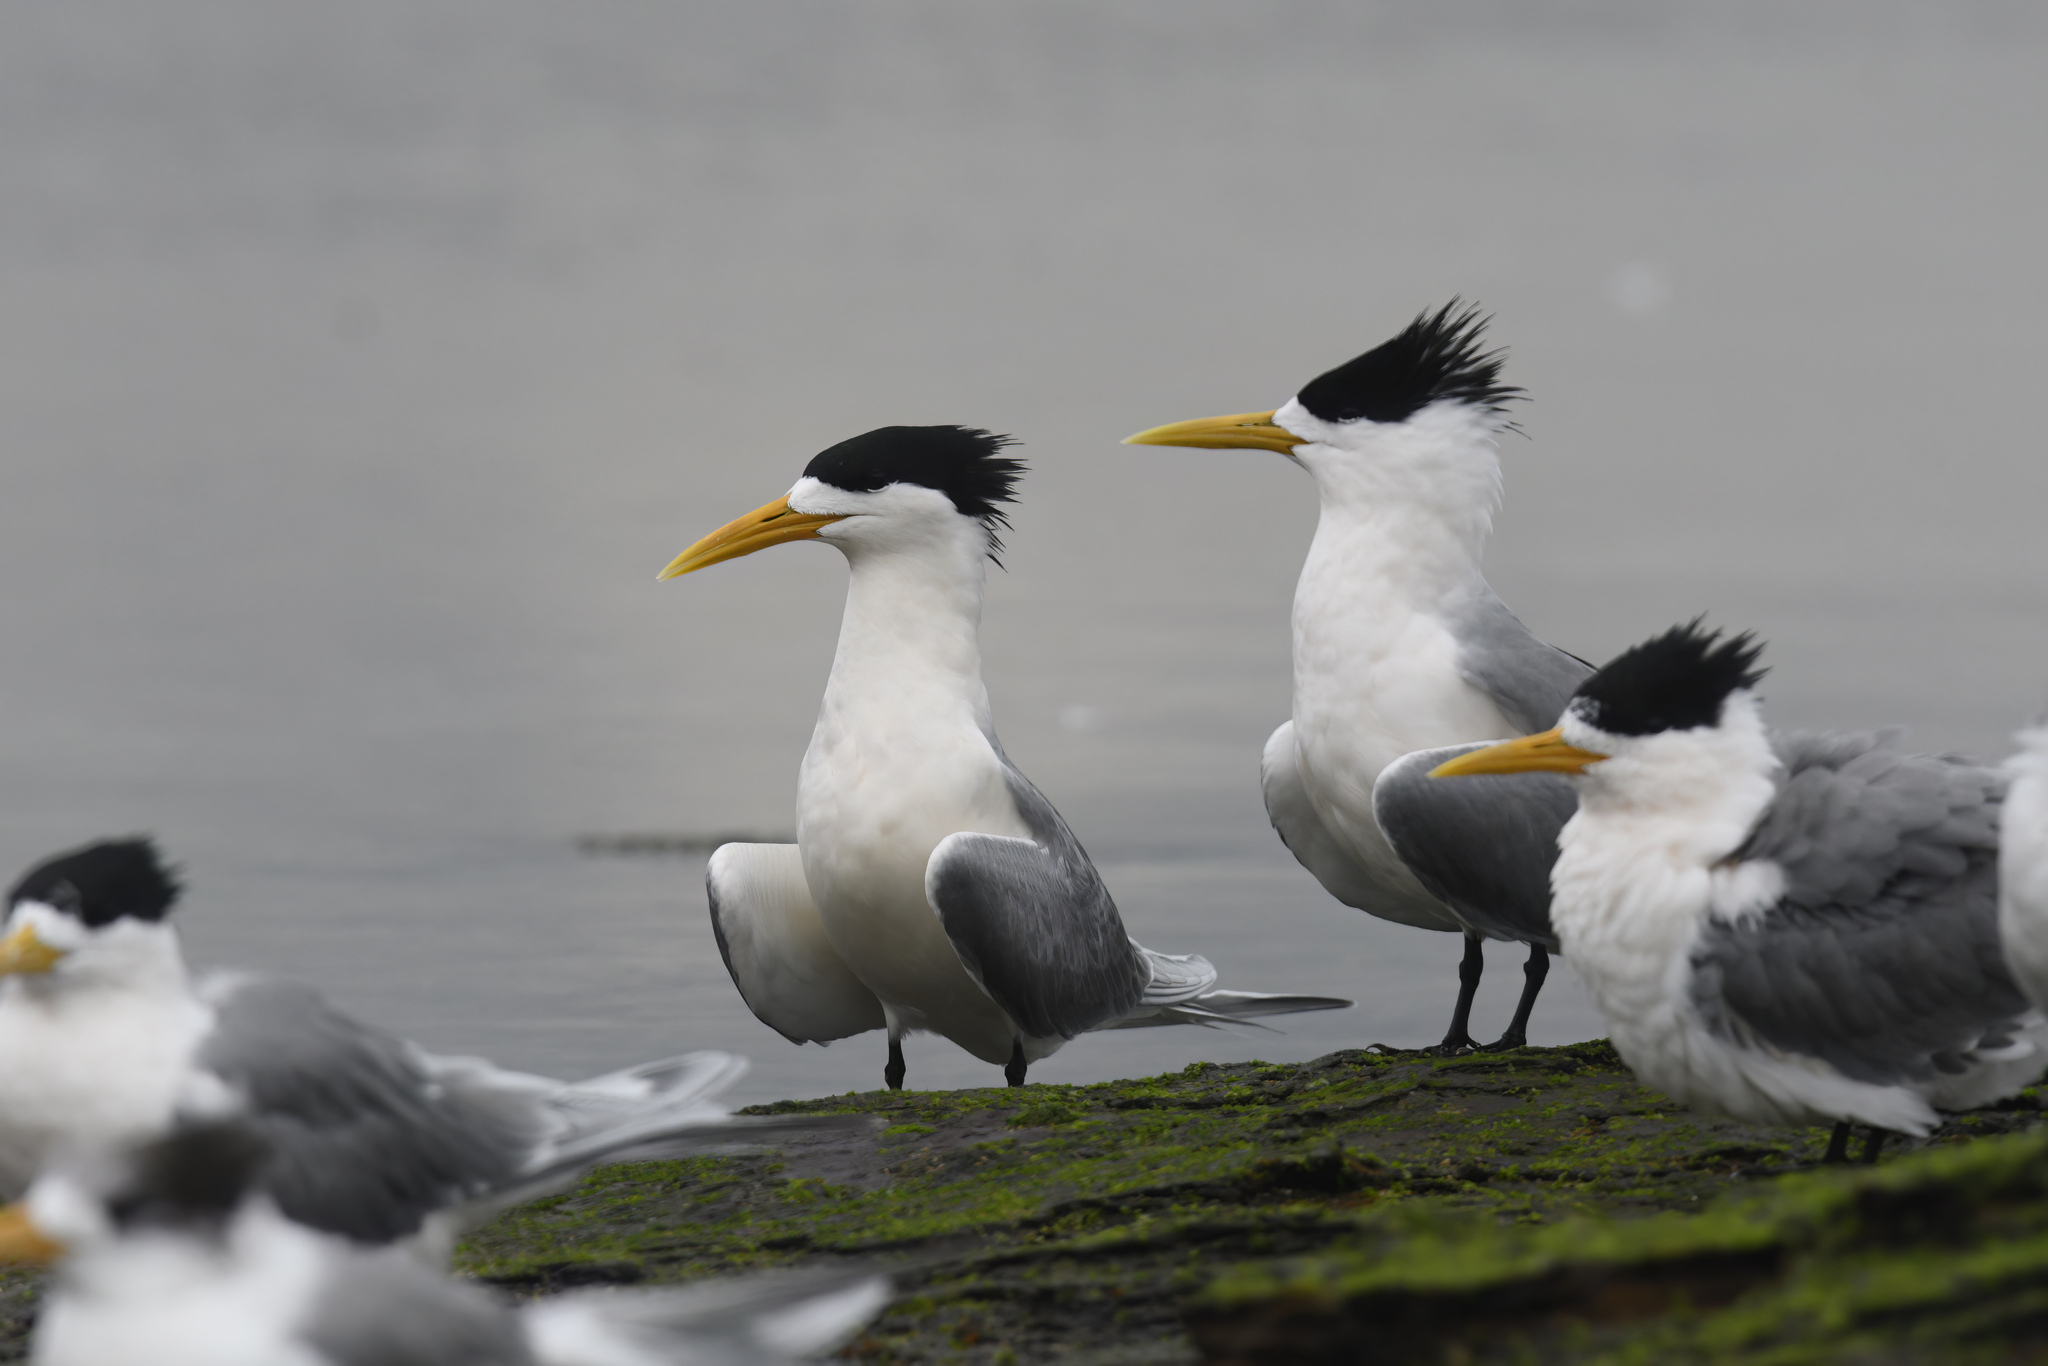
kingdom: Animalia
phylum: Chordata
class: Aves
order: Charadriiformes
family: Laridae
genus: Thalasseus
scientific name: Thalasseus bergii
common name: Greater crested tern
